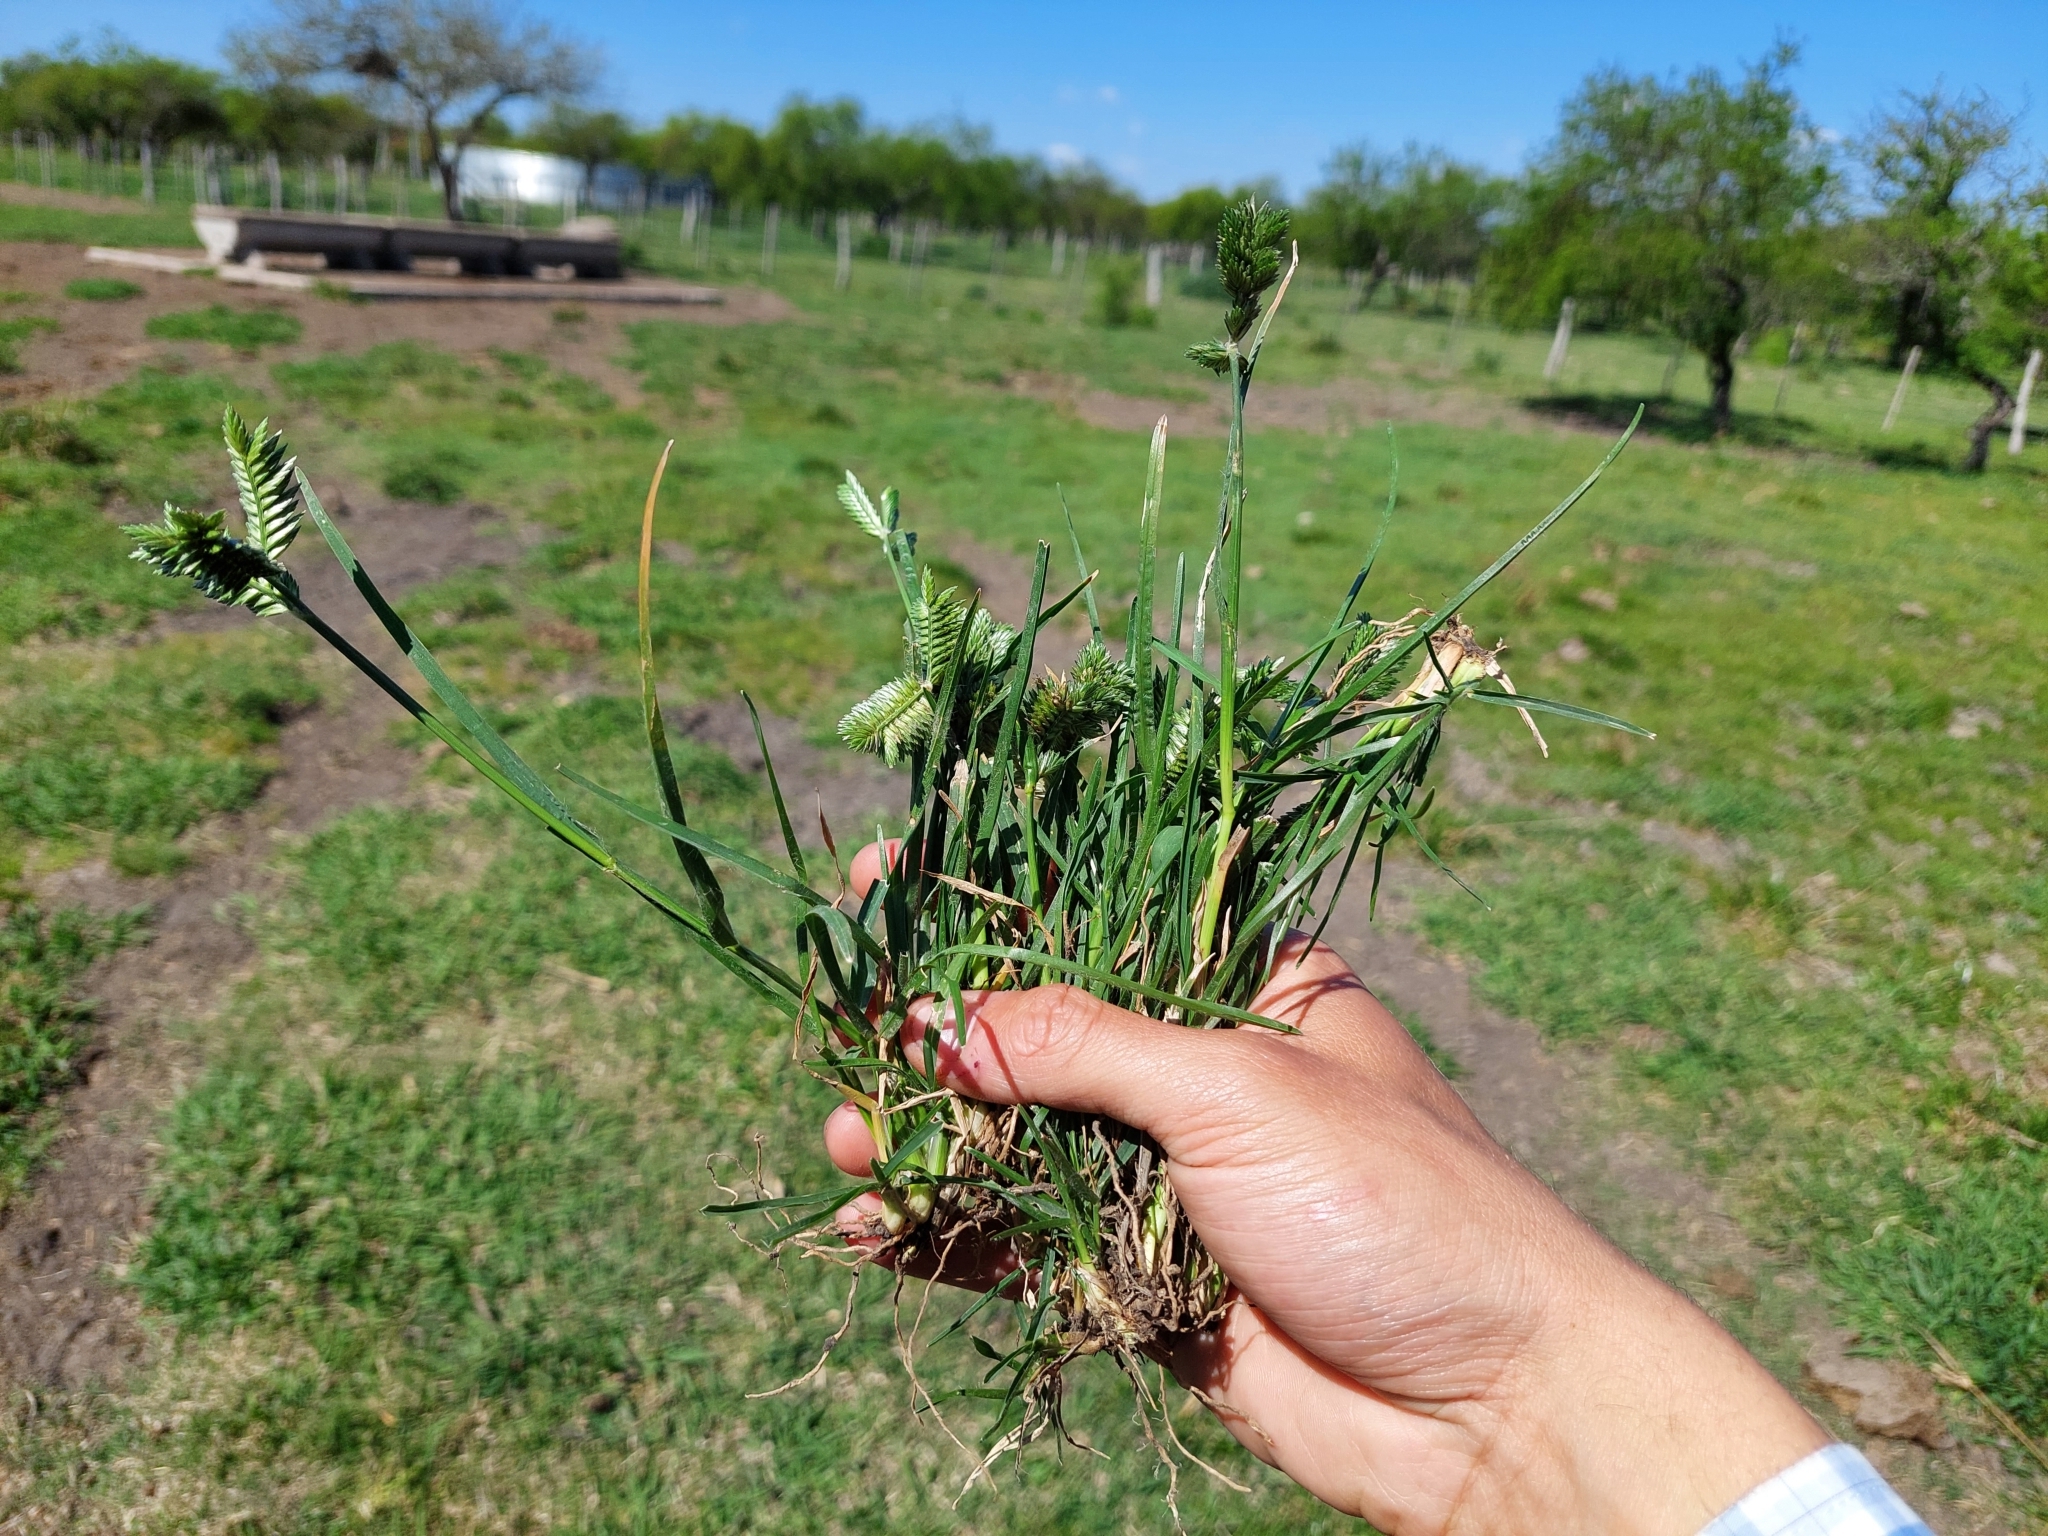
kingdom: Plantae
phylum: Tracheophyta
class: Liliopsida
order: Poales
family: Poaceae
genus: Eleusine
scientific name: Eleusine tristachya
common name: American yard-grass
